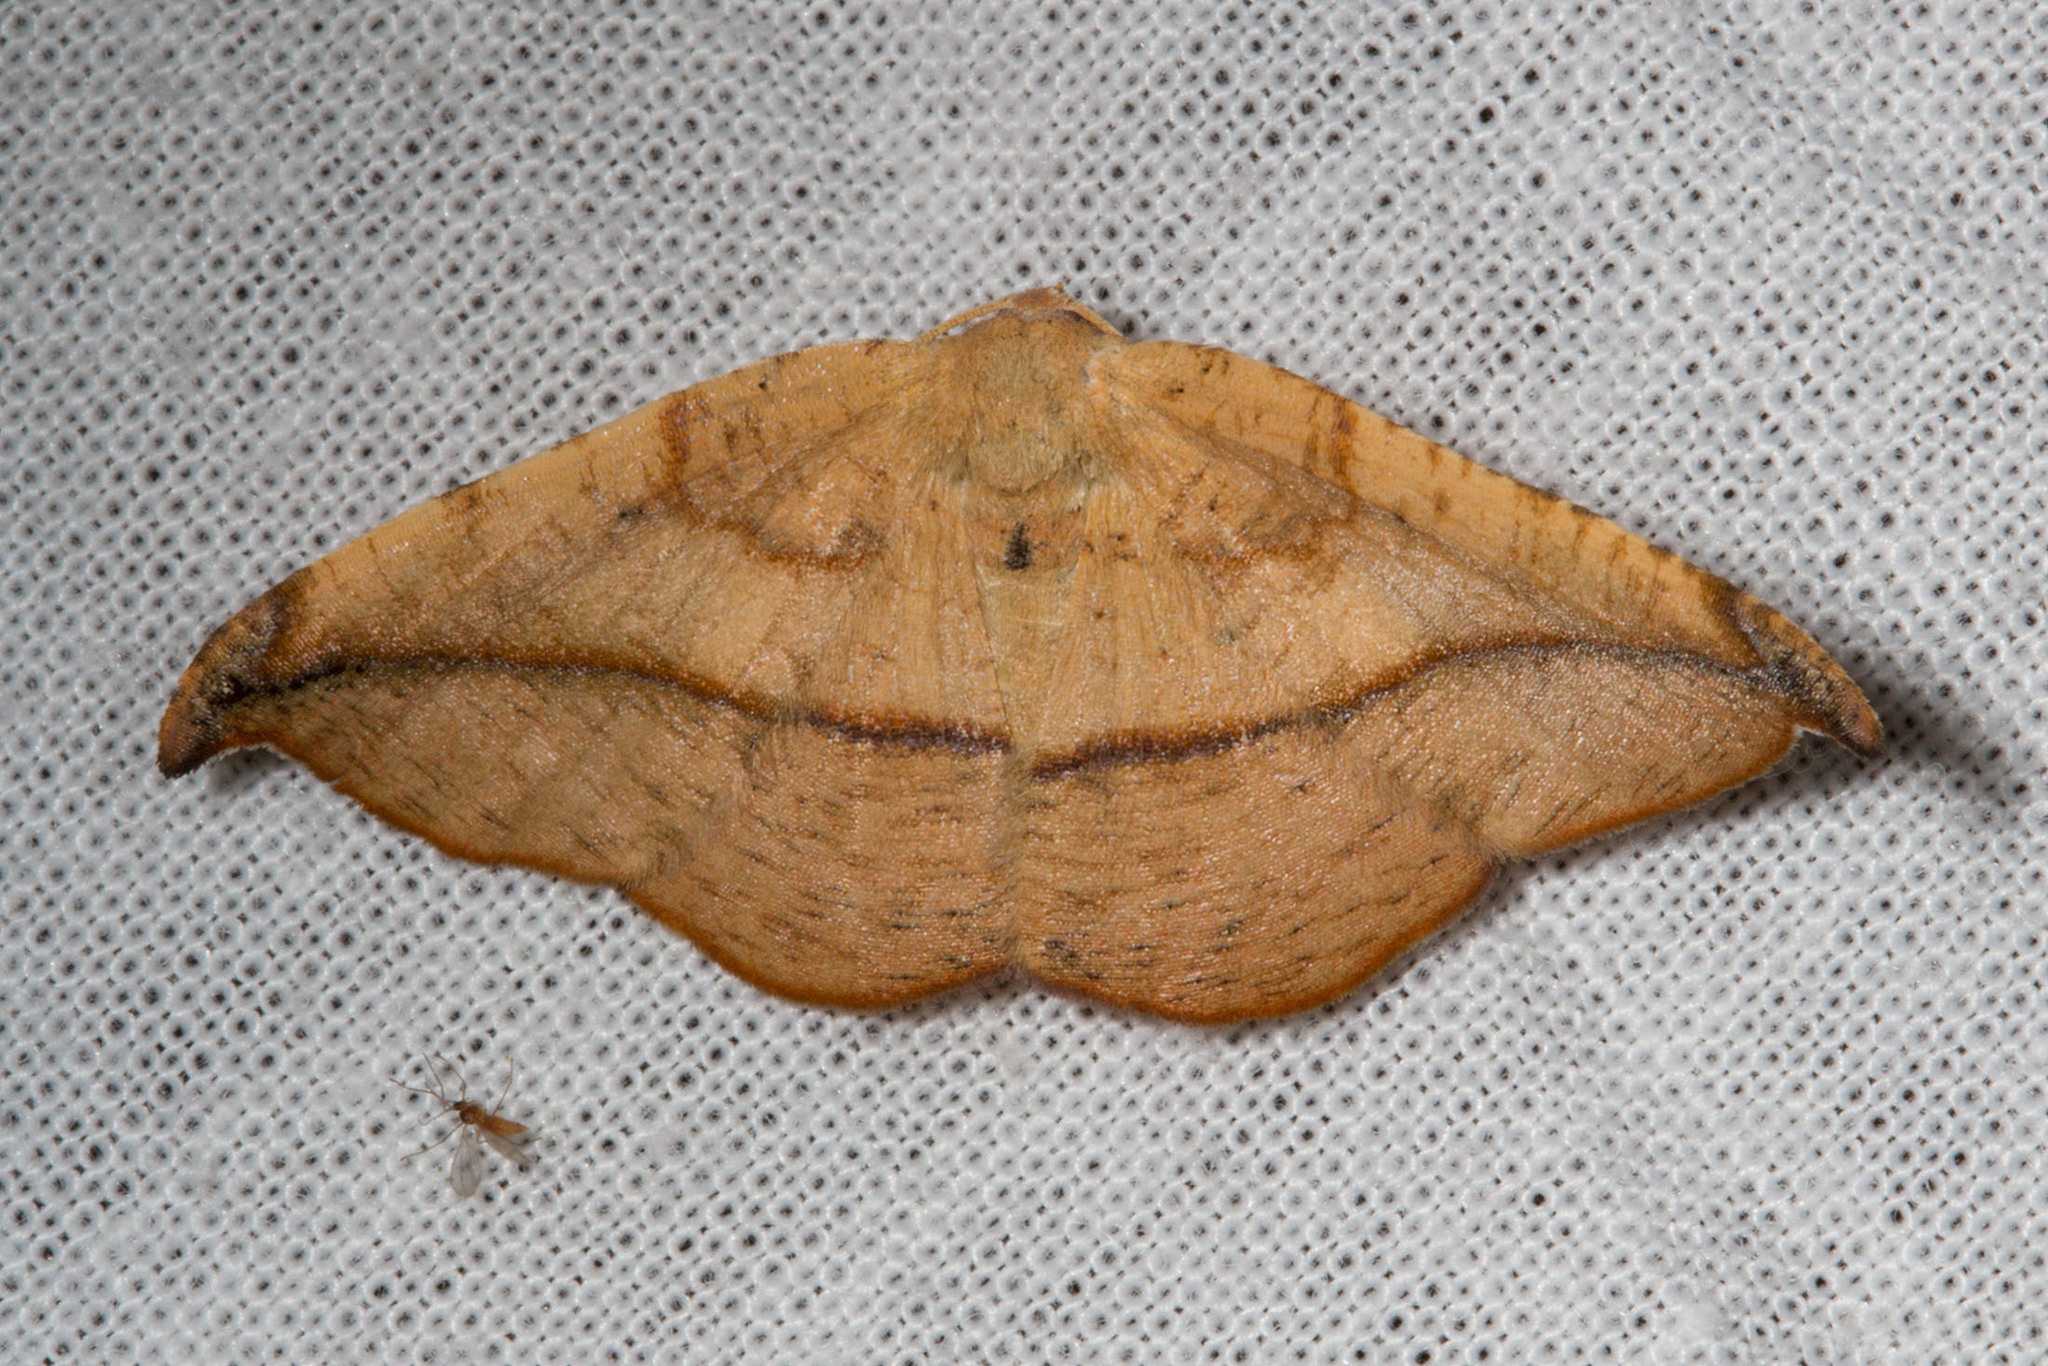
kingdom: Animalia
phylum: Arthropoda
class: Insecta
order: Lepidoptera
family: Geometridae
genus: Patalene
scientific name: Patalene olyzonaria
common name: Juniper geometer moth
